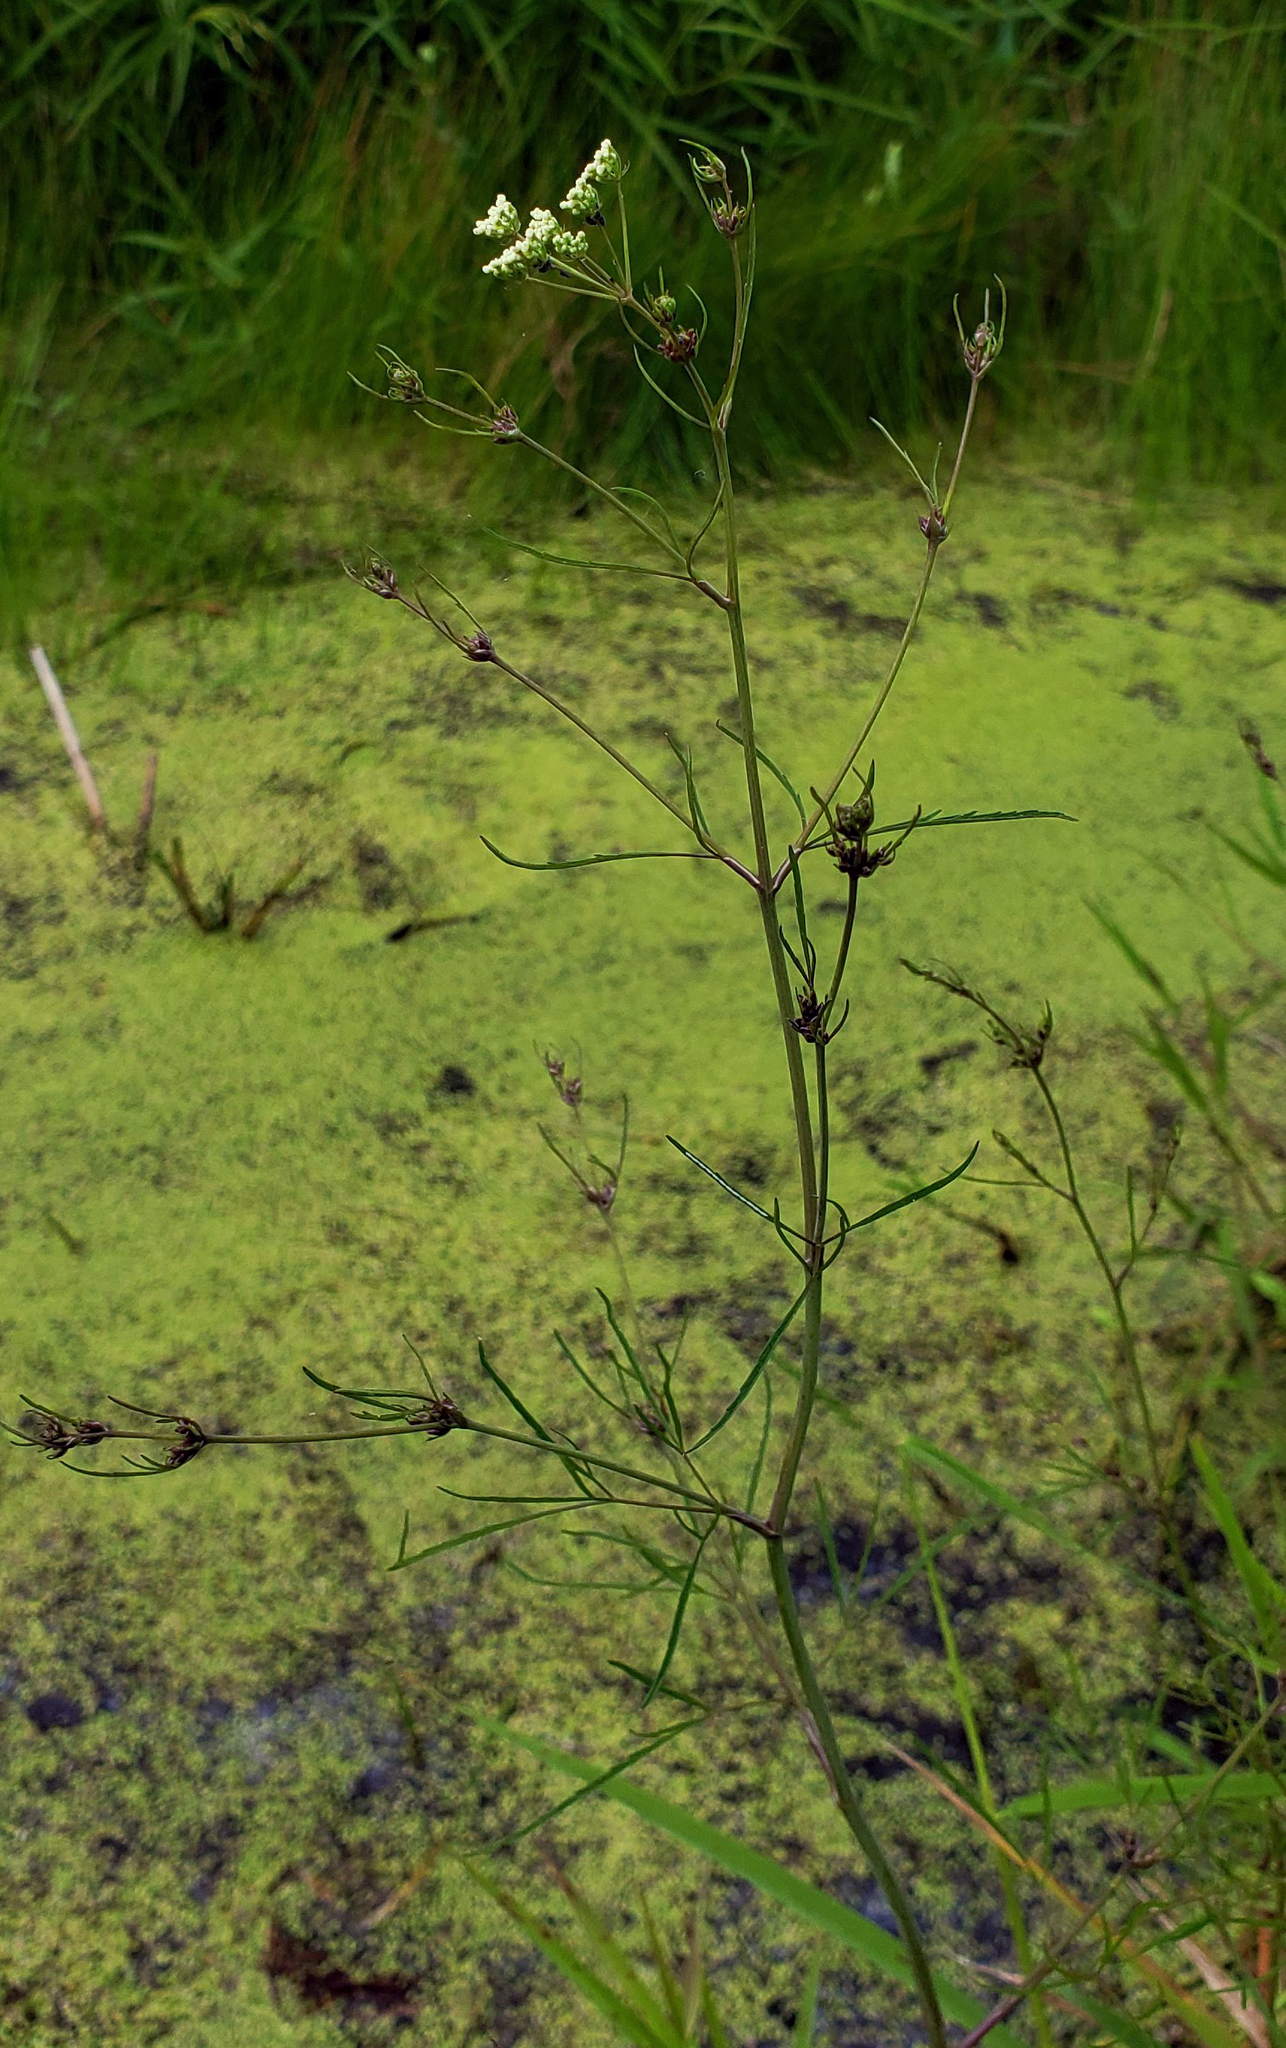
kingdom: Plantae
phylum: Tracheophyta
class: Magnoliopsida
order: Apiales
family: Apiaceae
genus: Cicuta
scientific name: Cicuta bulbifera
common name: Bulb-bearing water-hemlock
